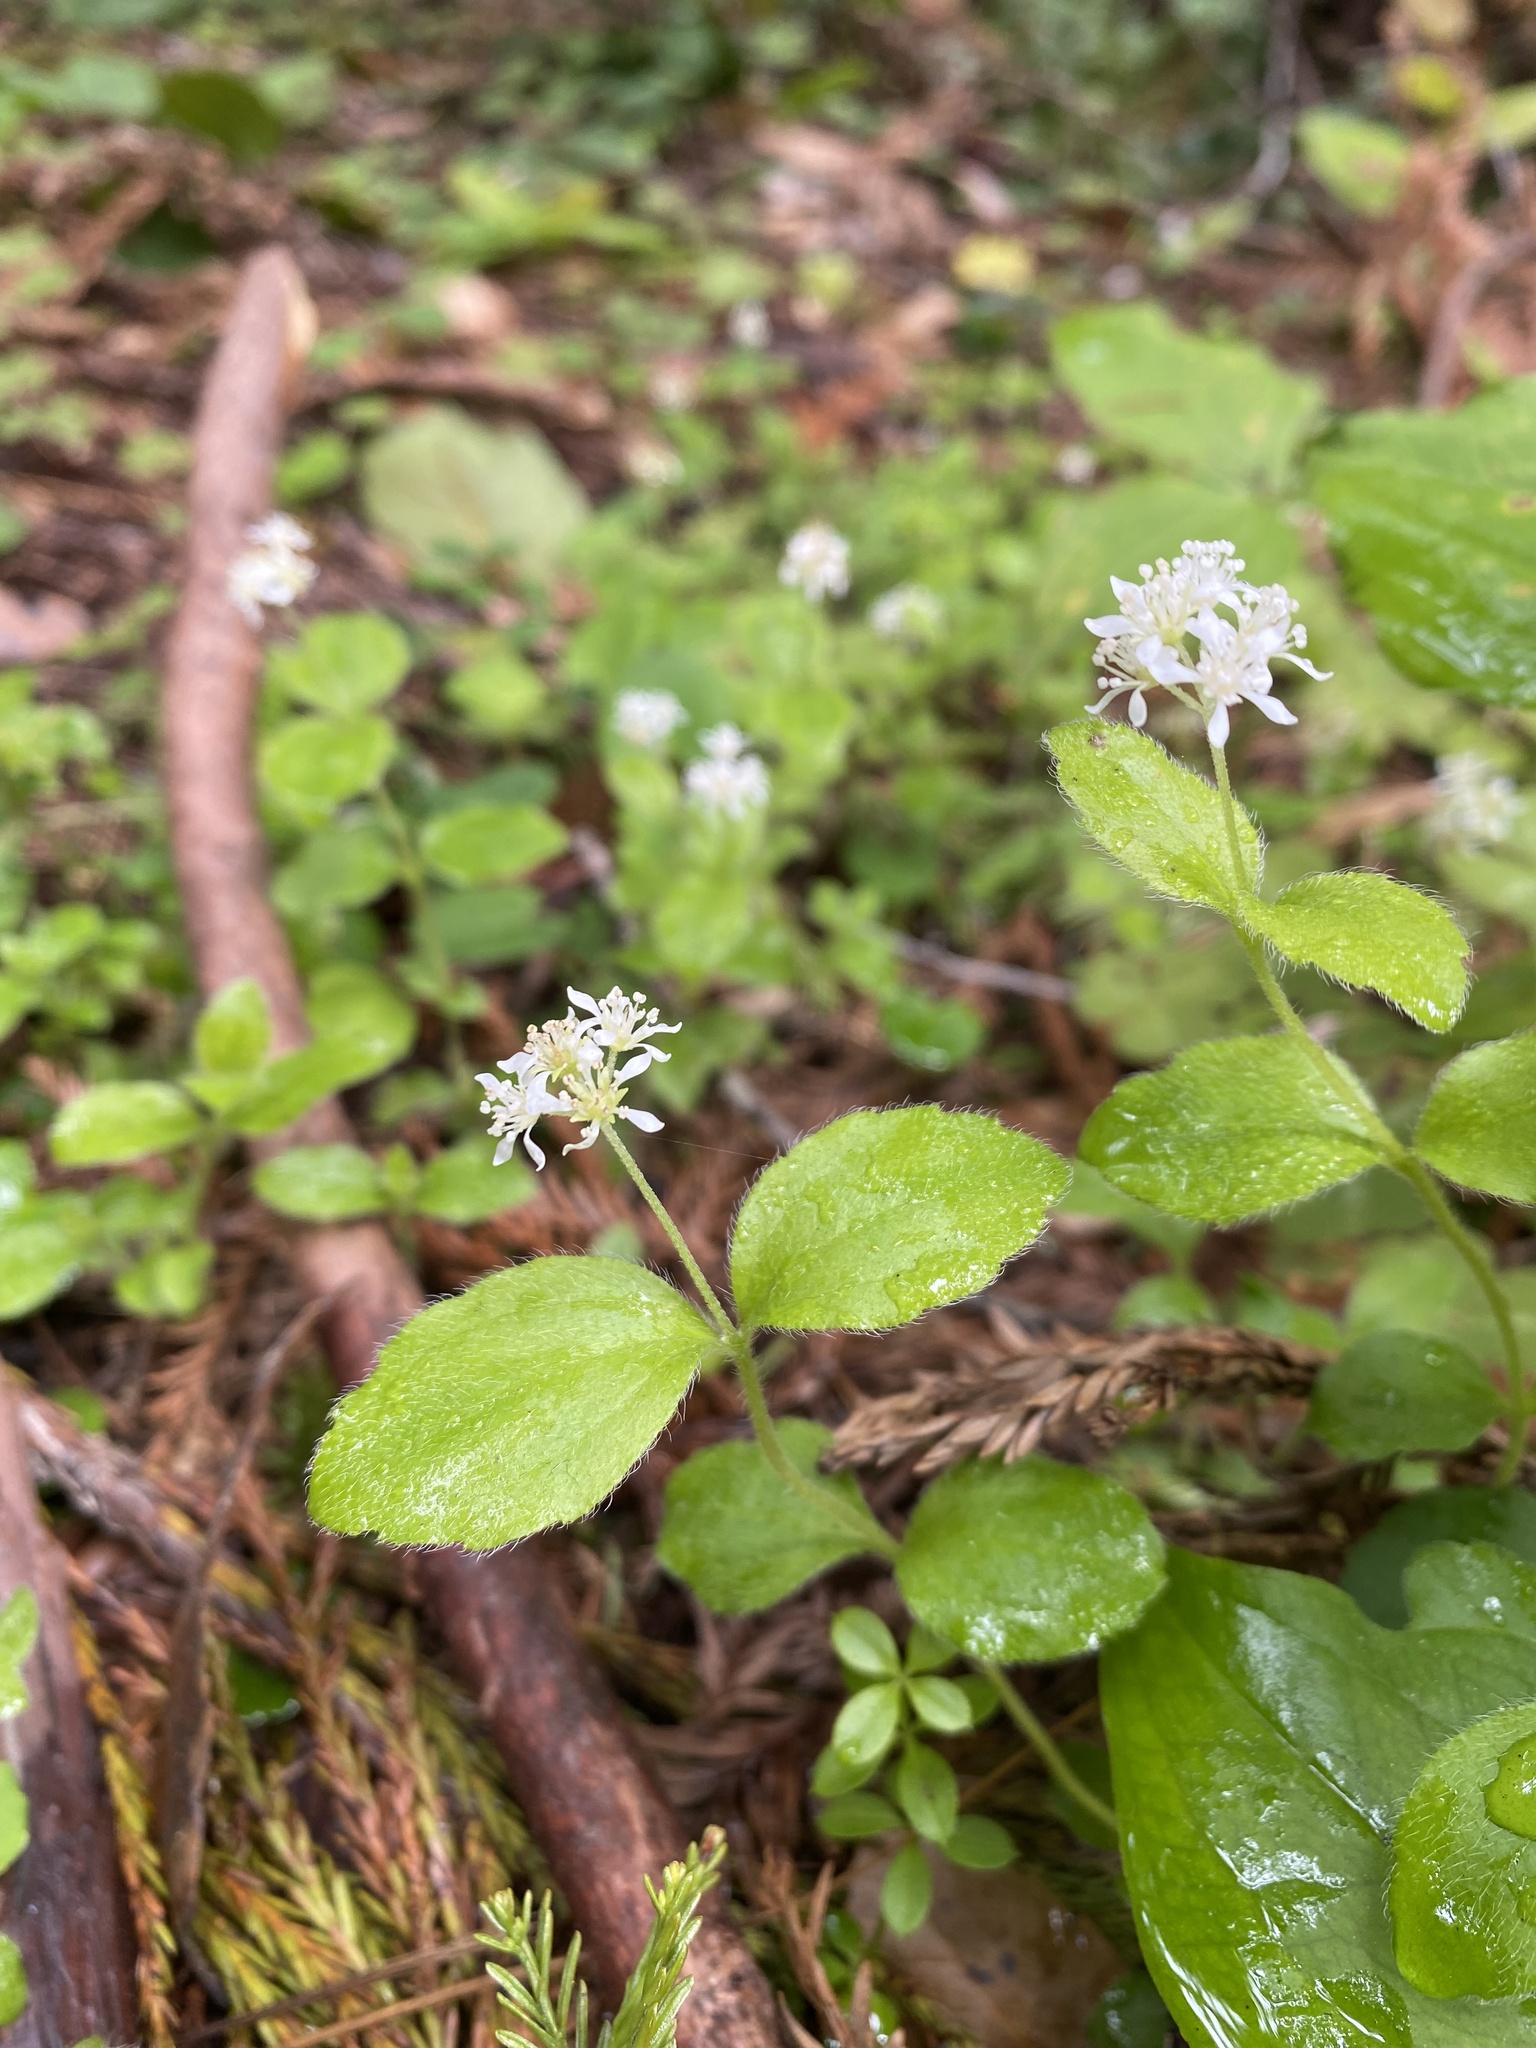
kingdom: Plantae
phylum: Tracheophyta
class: Magnoliopsida
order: Cornales
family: Hydrangeaceae
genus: Whipplea
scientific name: Whipplea modesta
